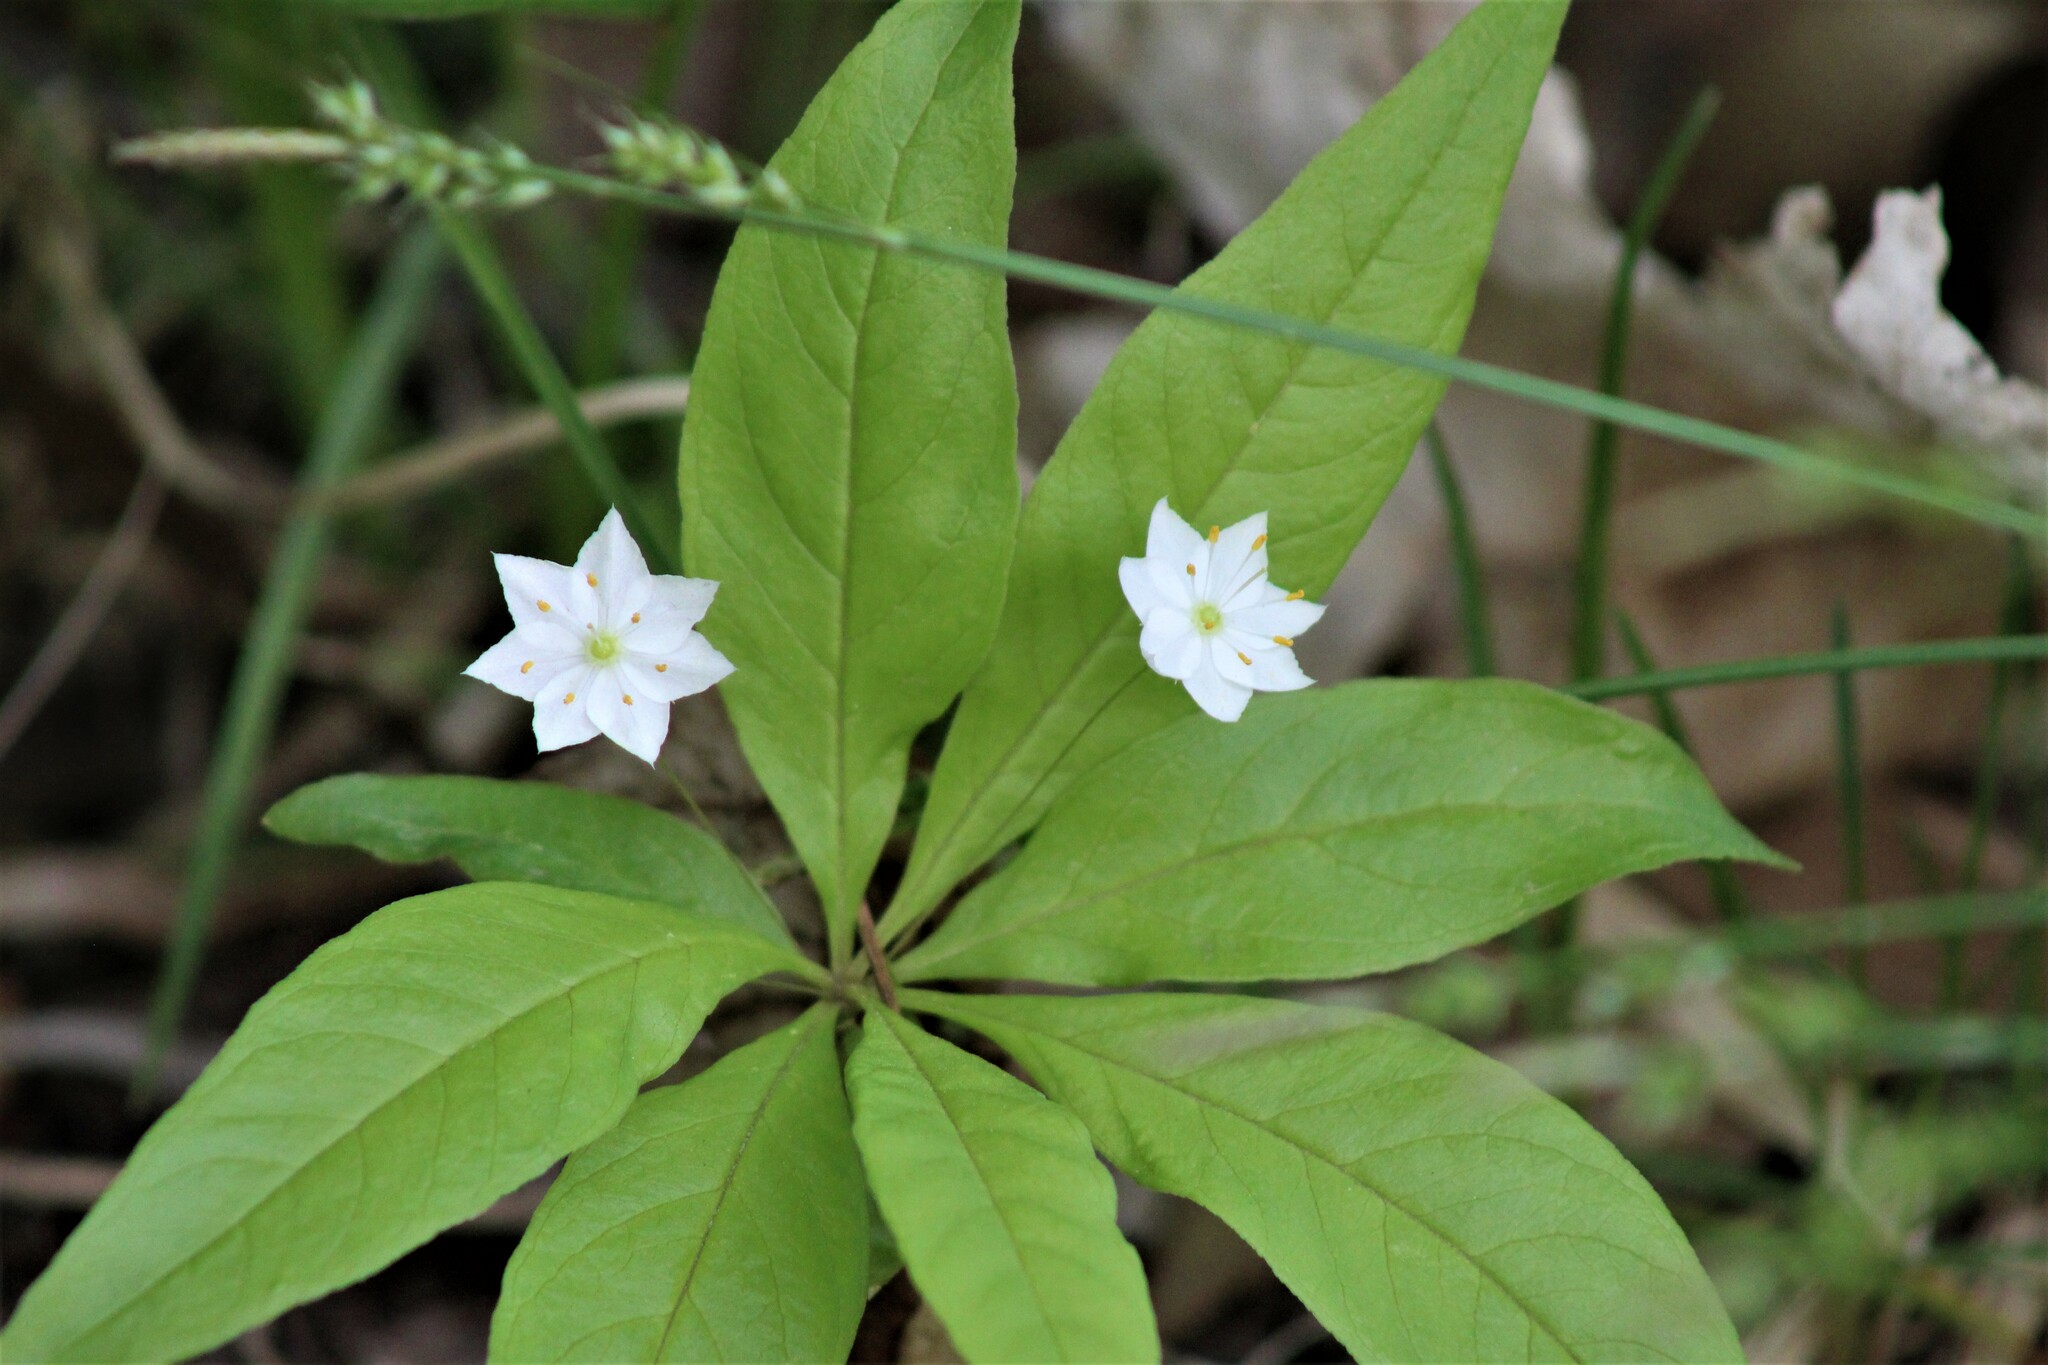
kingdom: Plantae
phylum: Tracheophyta
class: Magnoliopsida
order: Ericales
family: Primulaceae
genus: Lysimachia
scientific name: Lysimachia borealis
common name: American starflower
